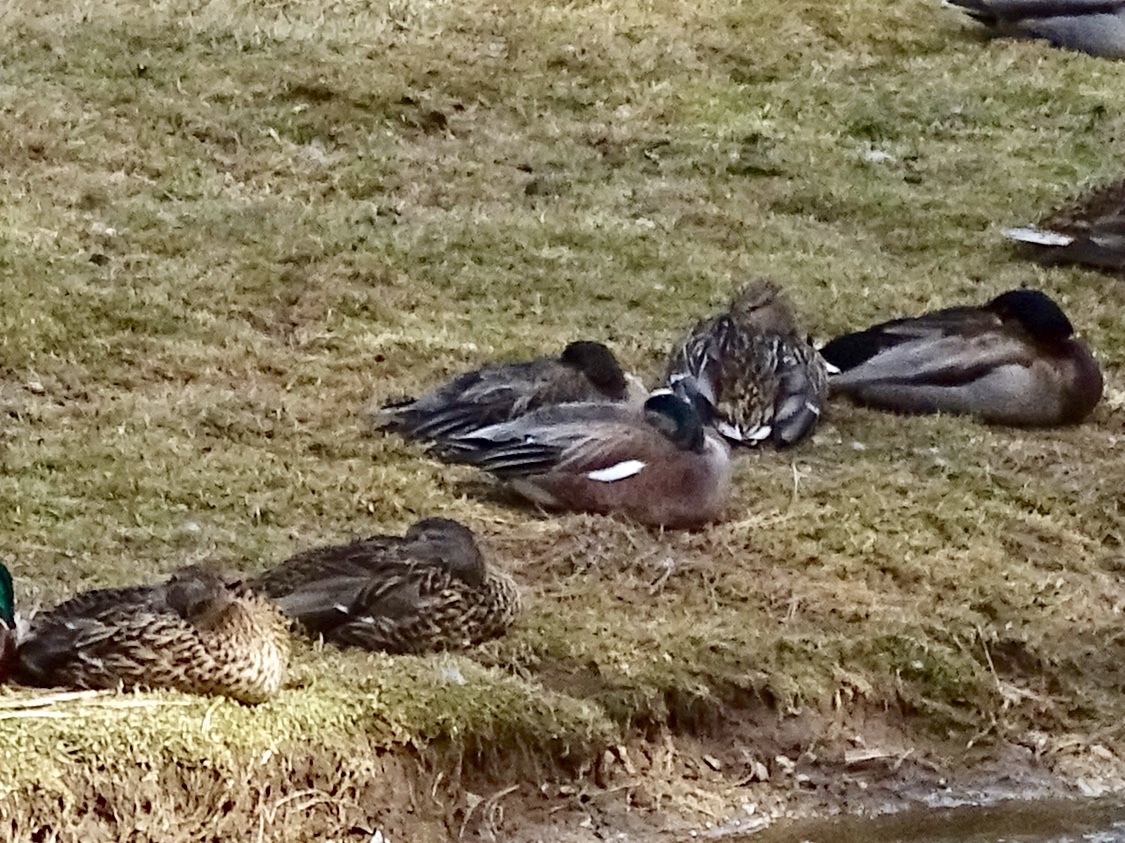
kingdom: Animalia
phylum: Chordata
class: Aves
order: Anseriformes
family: Anatidae
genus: Mareca
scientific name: Mareca americana
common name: American wigeon
